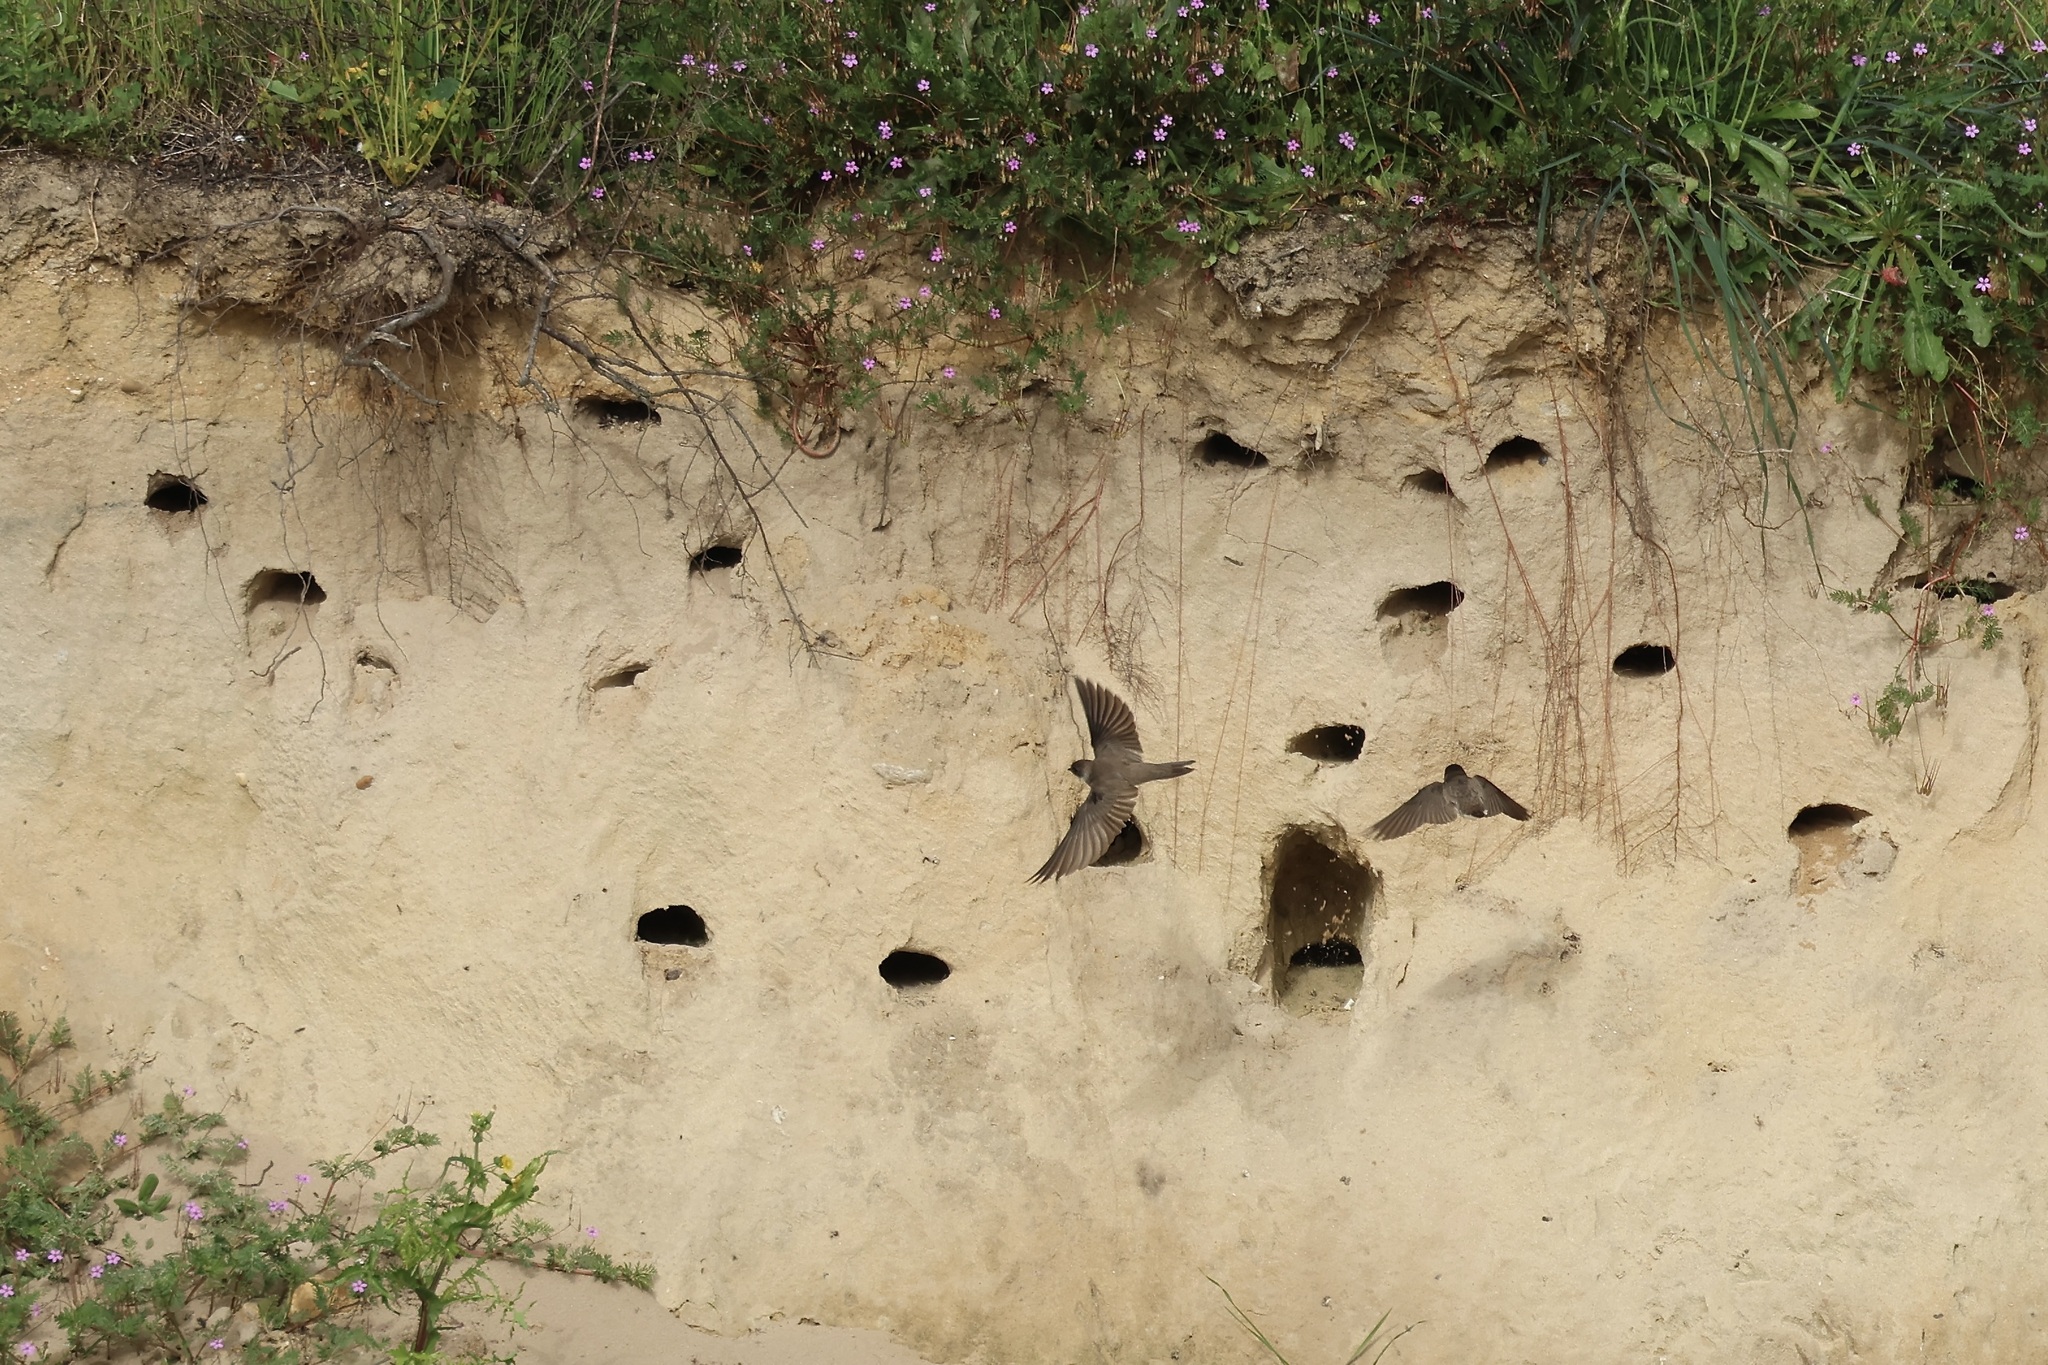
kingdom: Animalia
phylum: Chordata
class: Aves
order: Passeriformes
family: Hirundinidae
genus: Riparia
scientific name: Riparia riparia
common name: Sand martin
